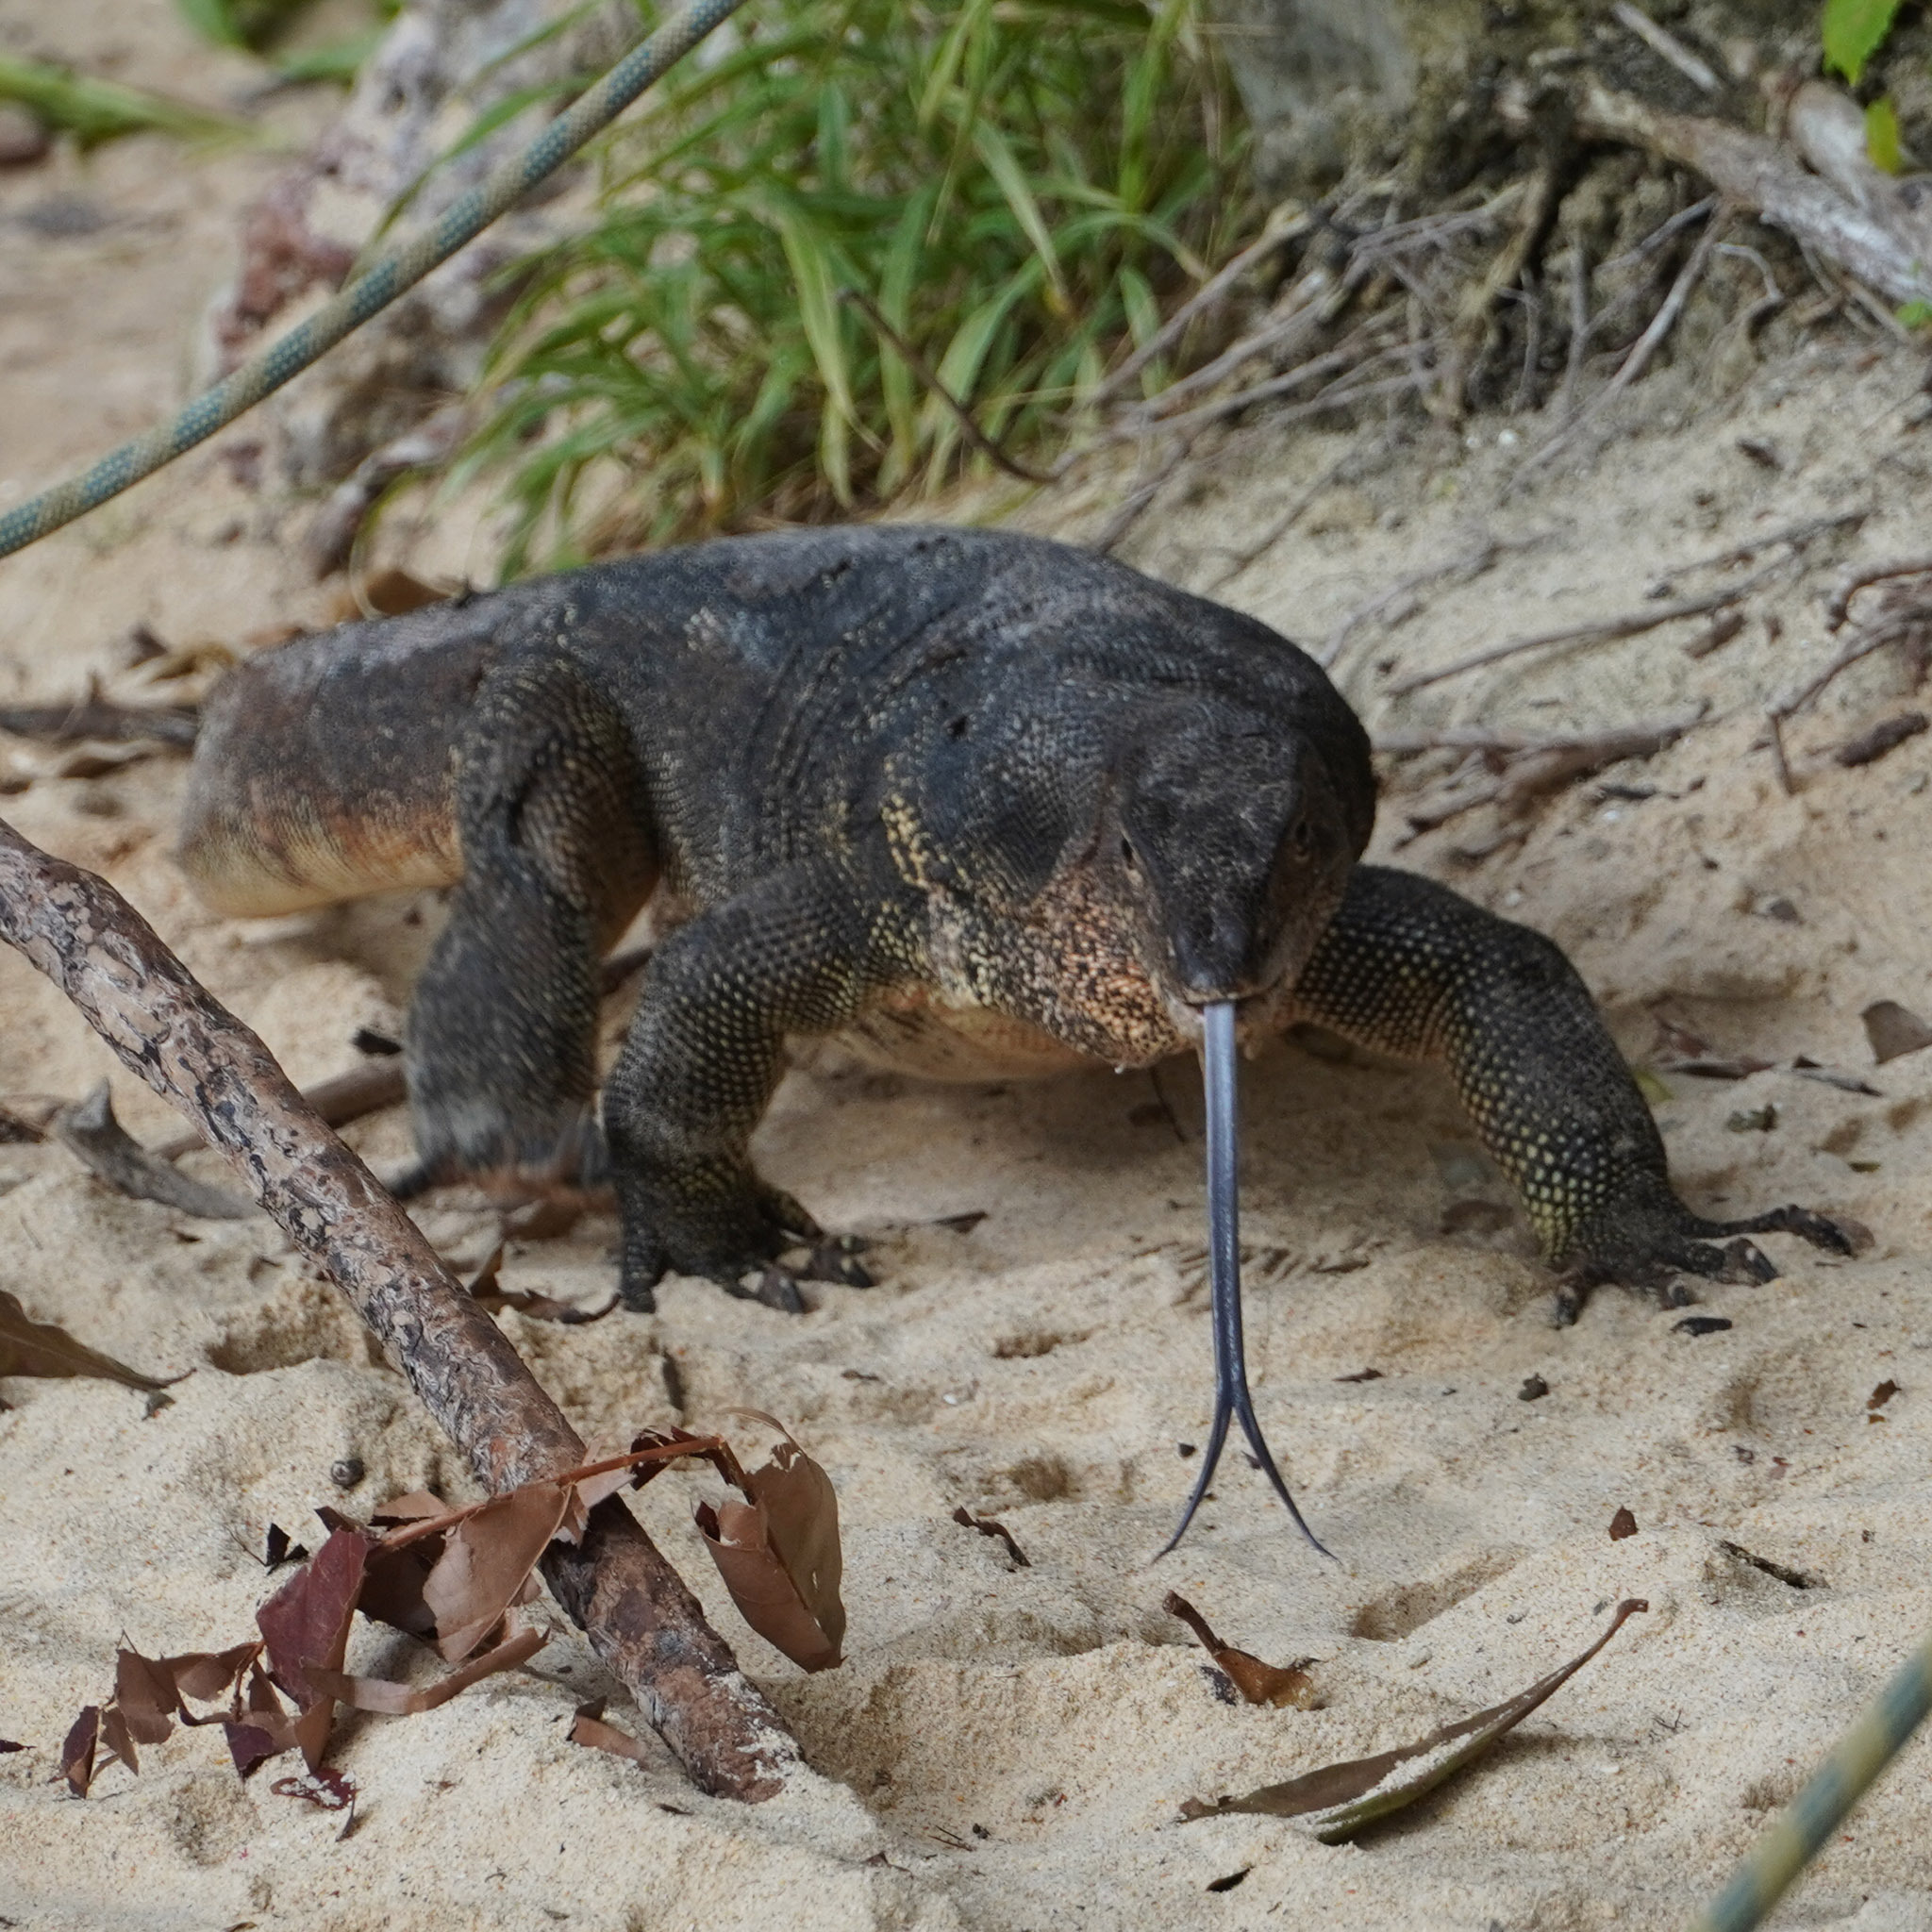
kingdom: Animalia
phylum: Chordata
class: Squamata
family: Varanidae
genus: Varanus
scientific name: Varanus salvator
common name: Common water monitor
